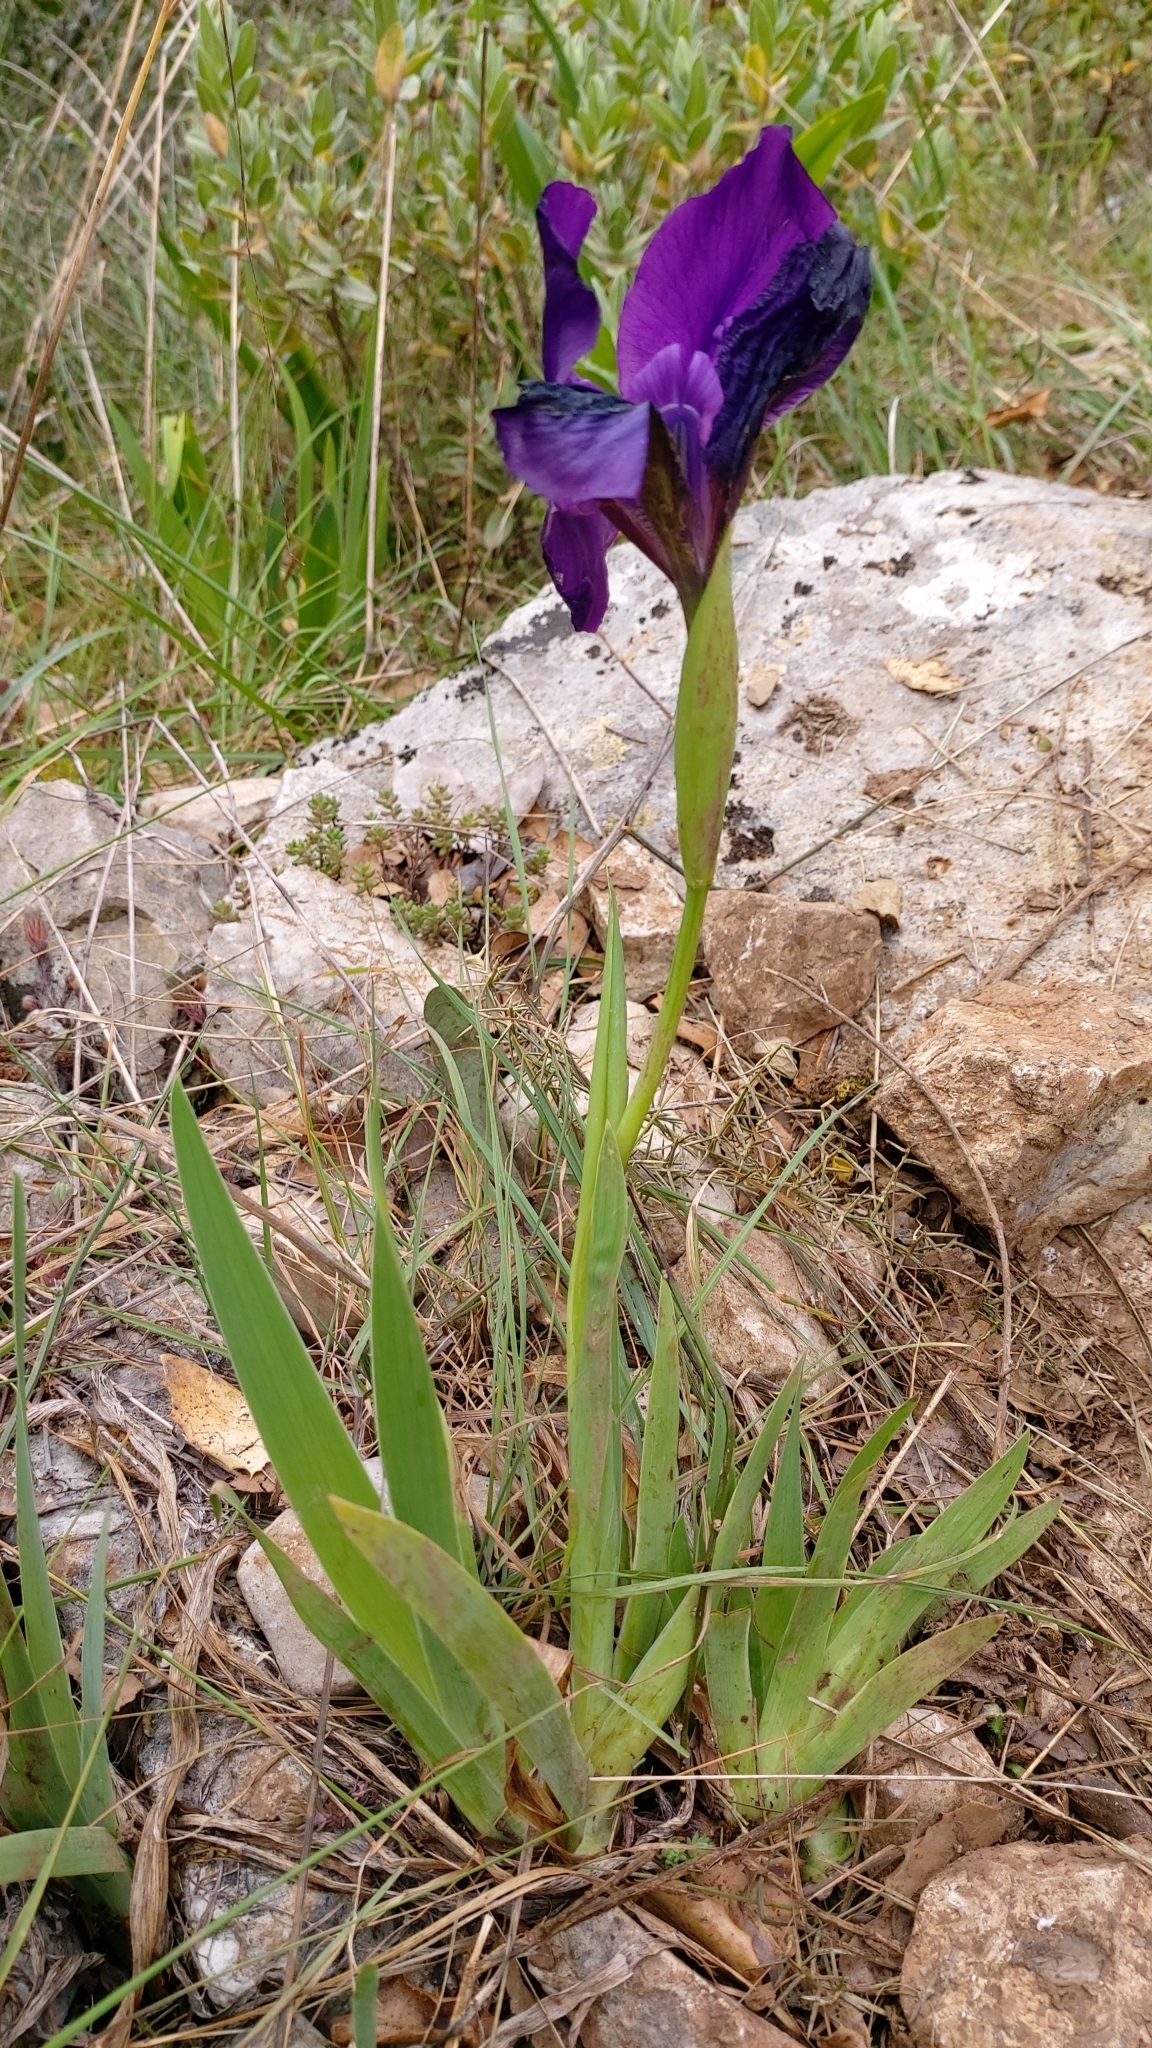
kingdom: Plantae
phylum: Tracheophyta
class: Liliopsida
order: Asparagales
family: Iridaceae
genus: Iris
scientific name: Iris lutescens
